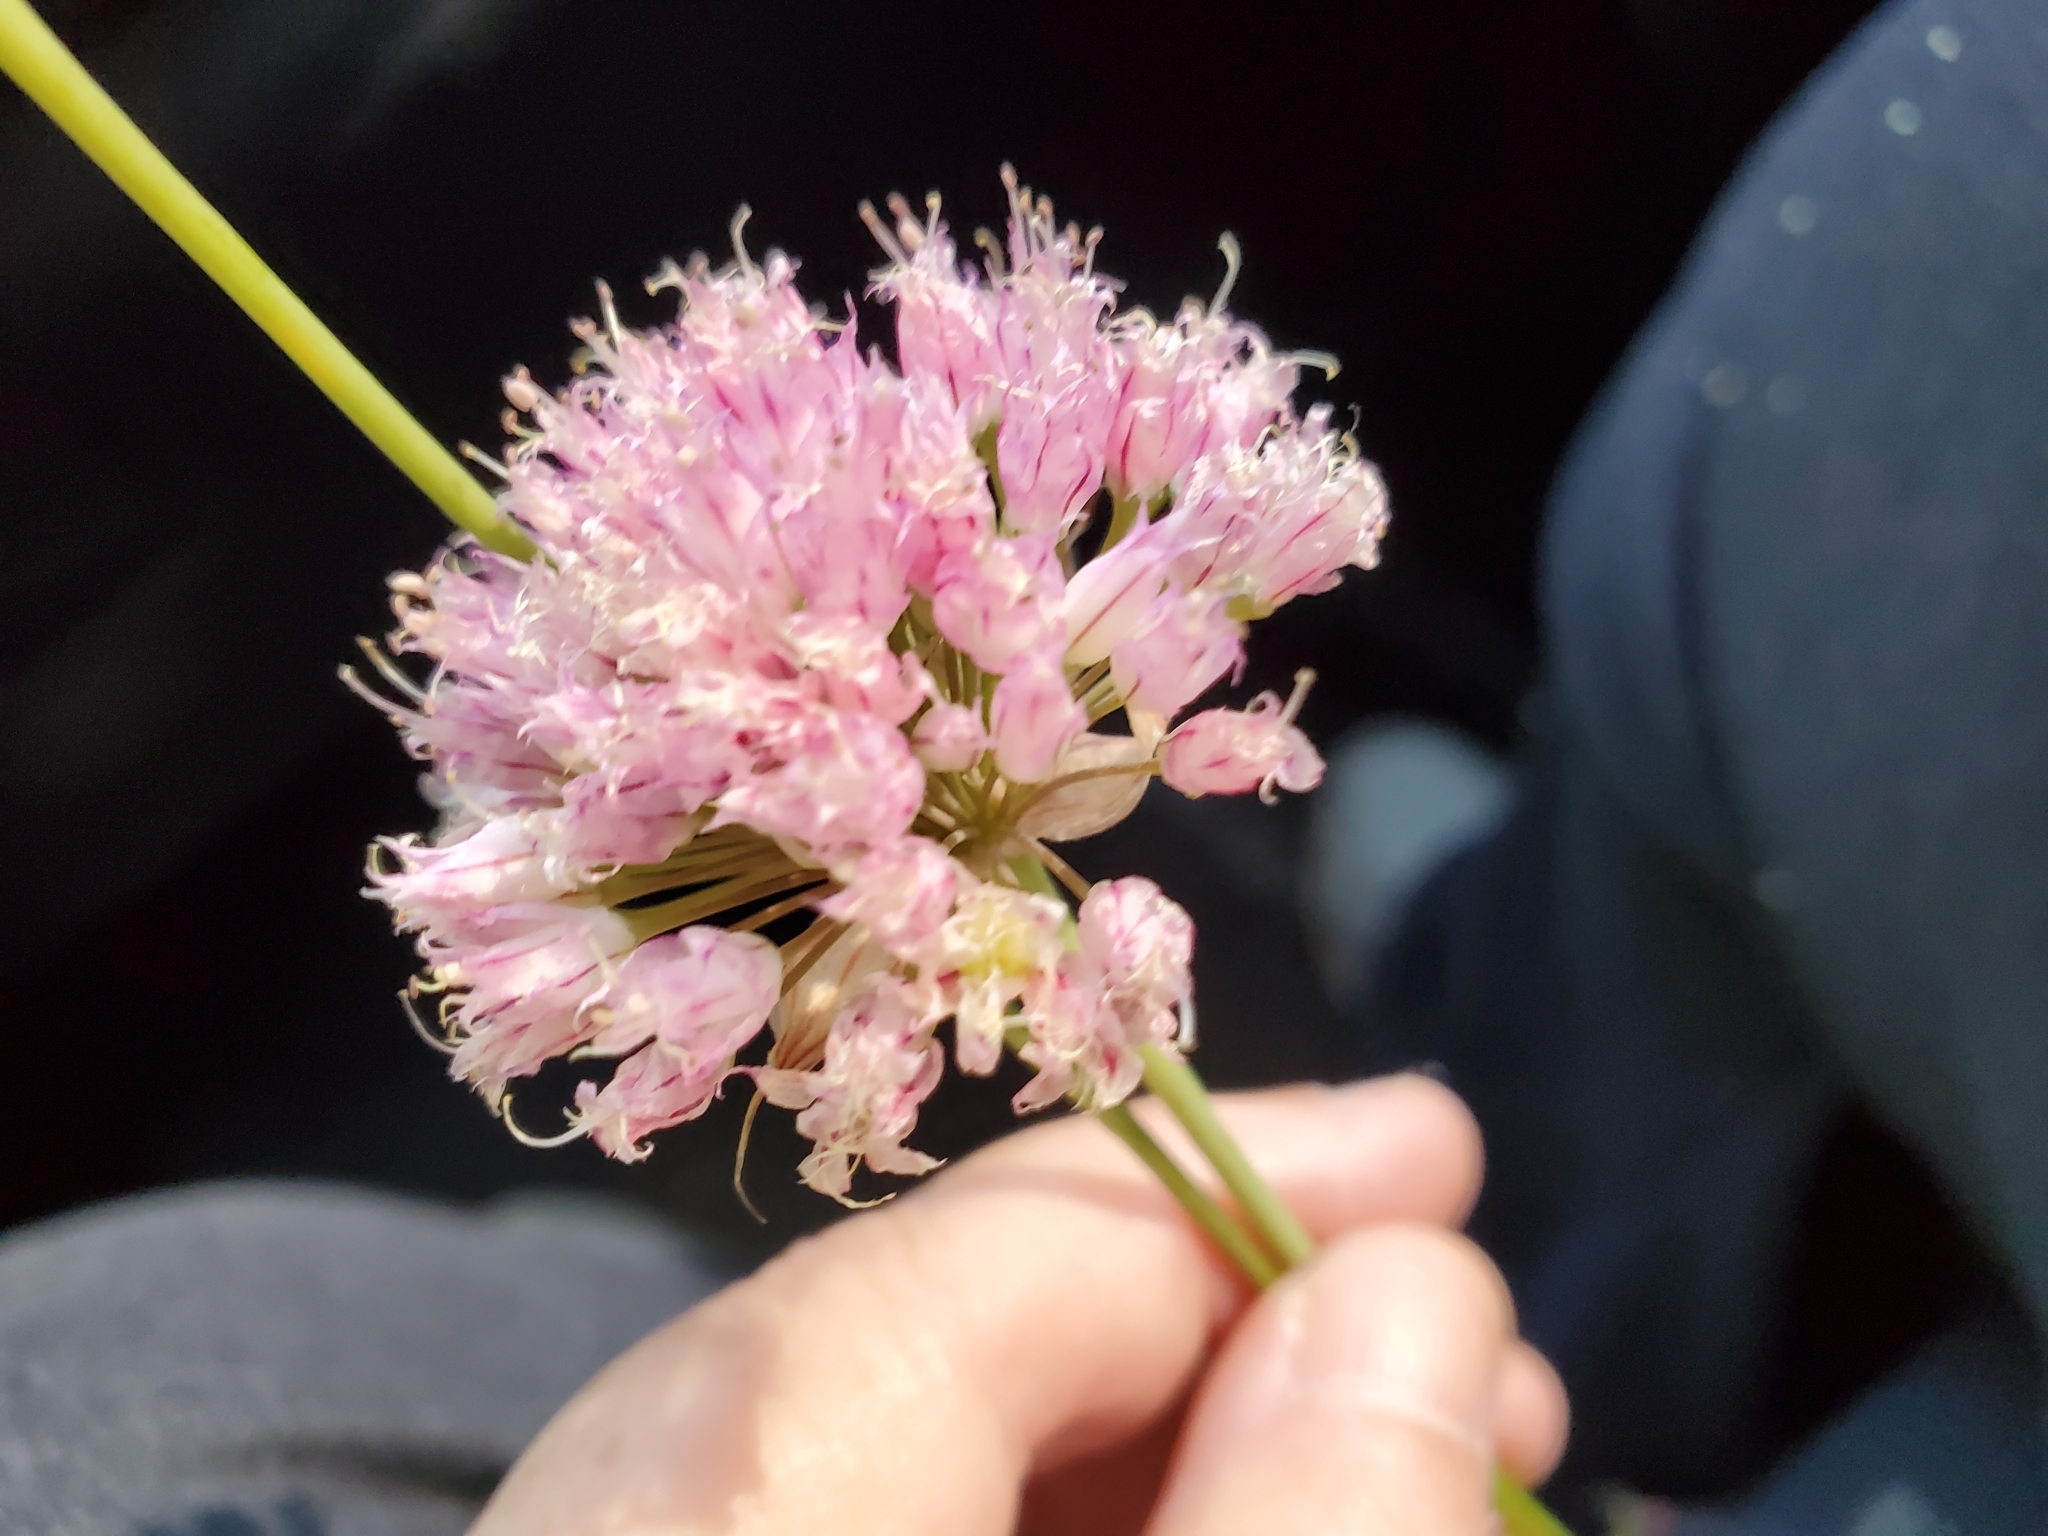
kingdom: Plantae
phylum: Tracheophyta
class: Liliopsida
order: Asparagales
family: Amaryllidaceae
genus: Allium
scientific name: Allium amplectens
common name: Narrow-leaved onion
